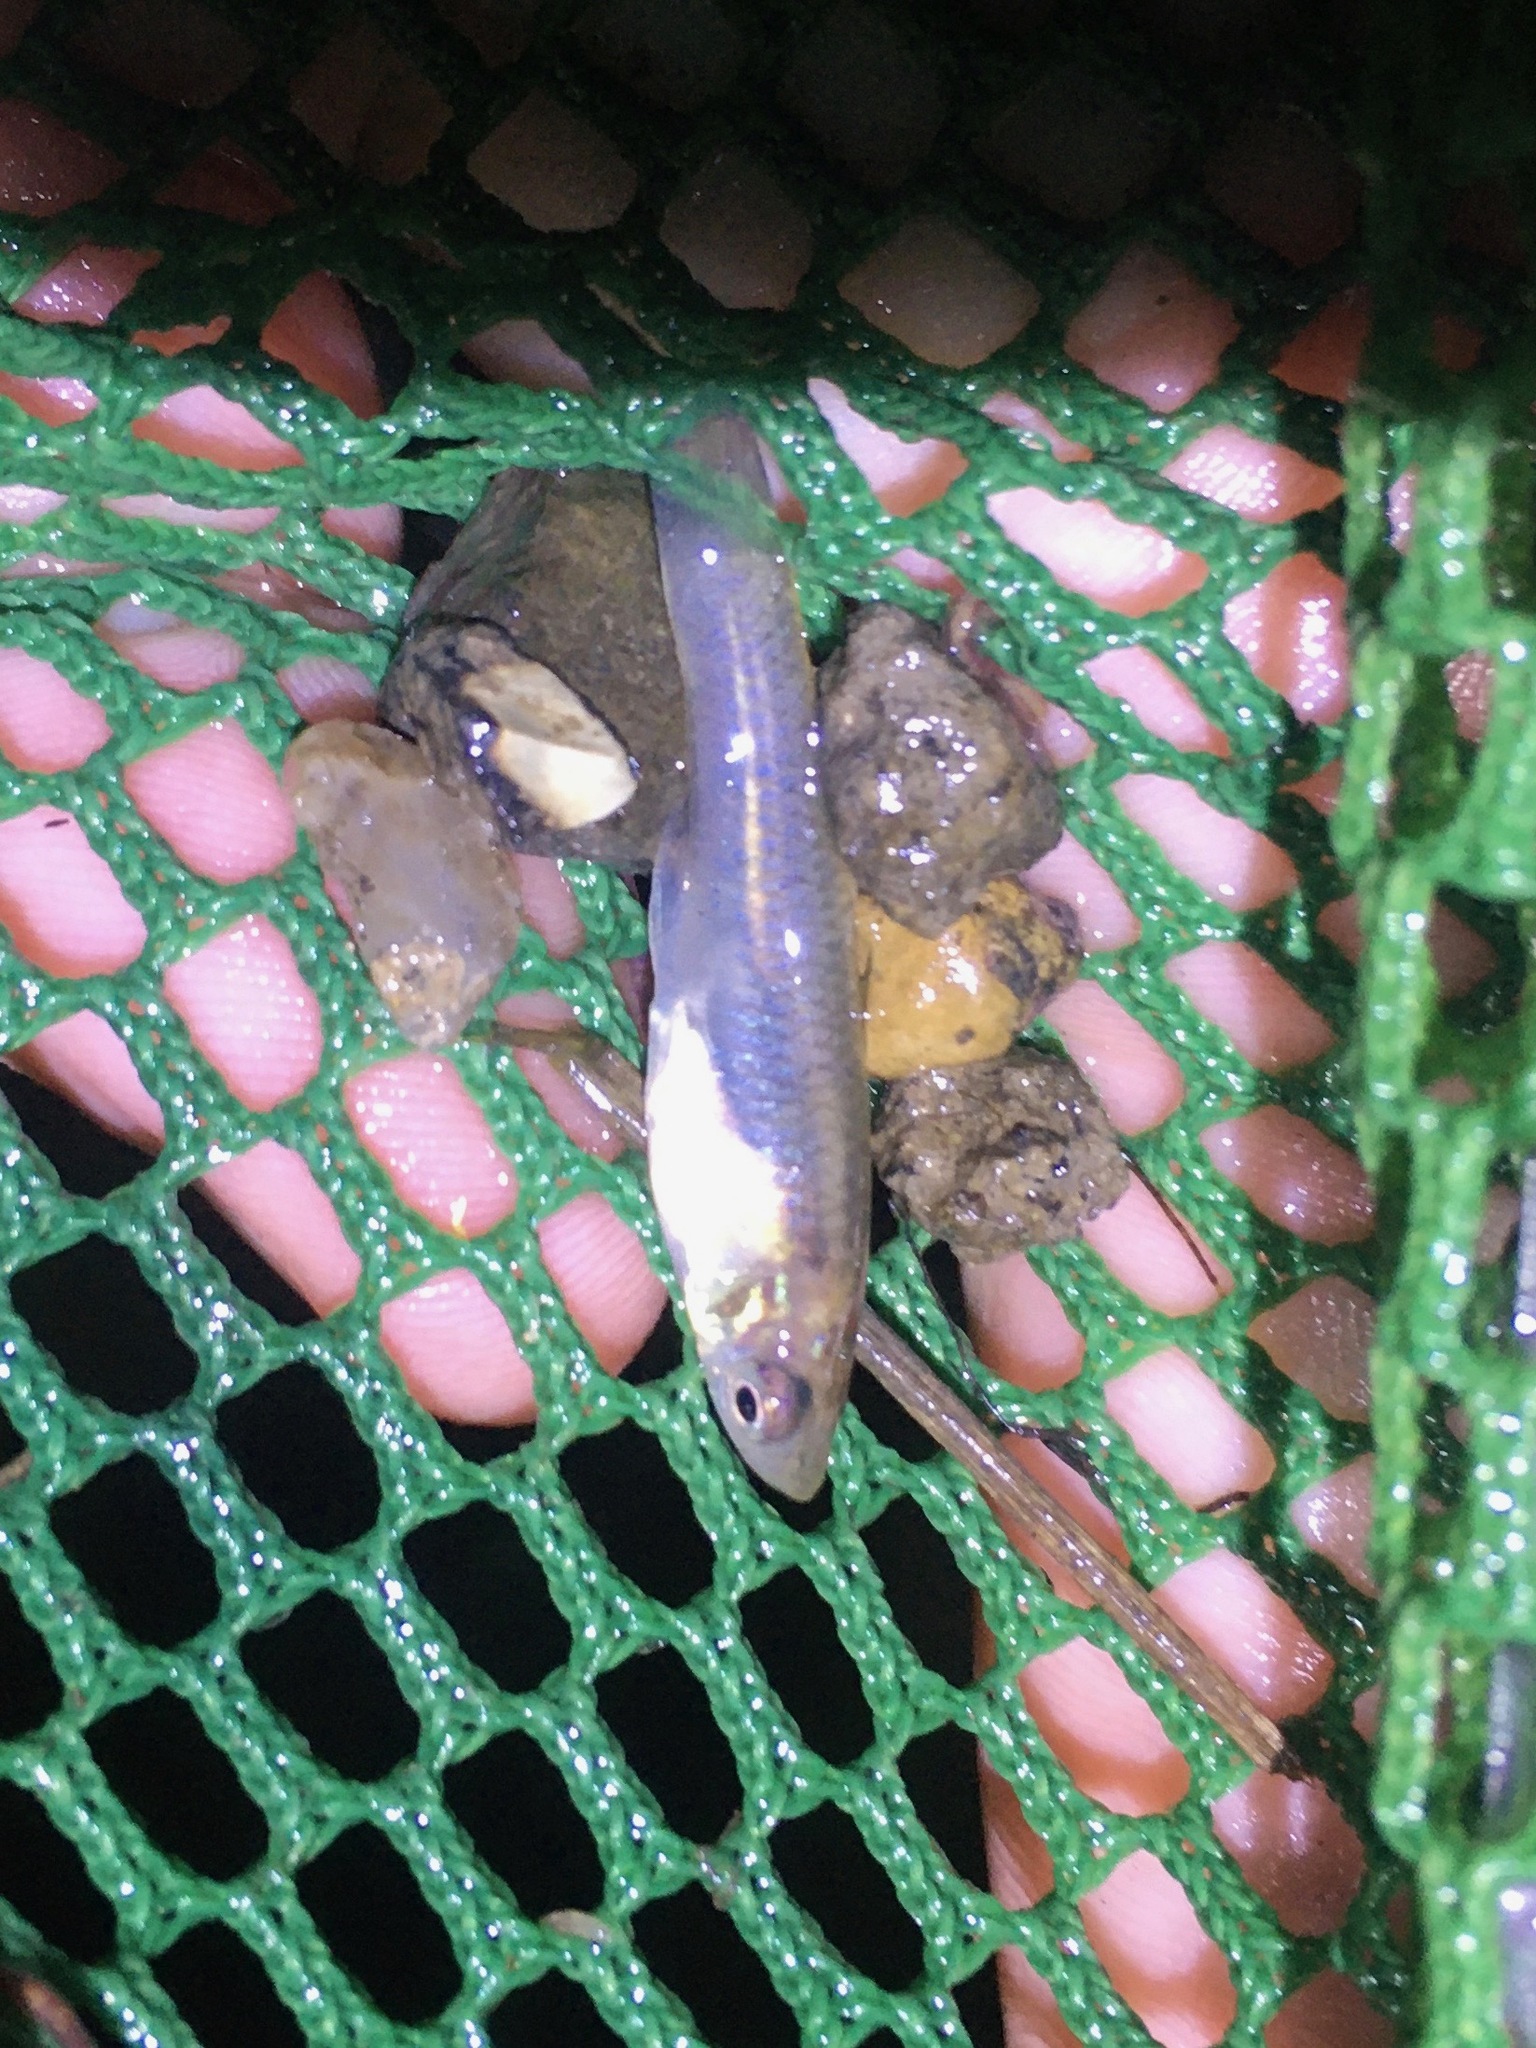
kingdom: Animalia
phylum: Chordata
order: Cyprinodontiformes
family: Poeciliidae
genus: Gambusia
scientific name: Gambusia affinis
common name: Mosquitofish
